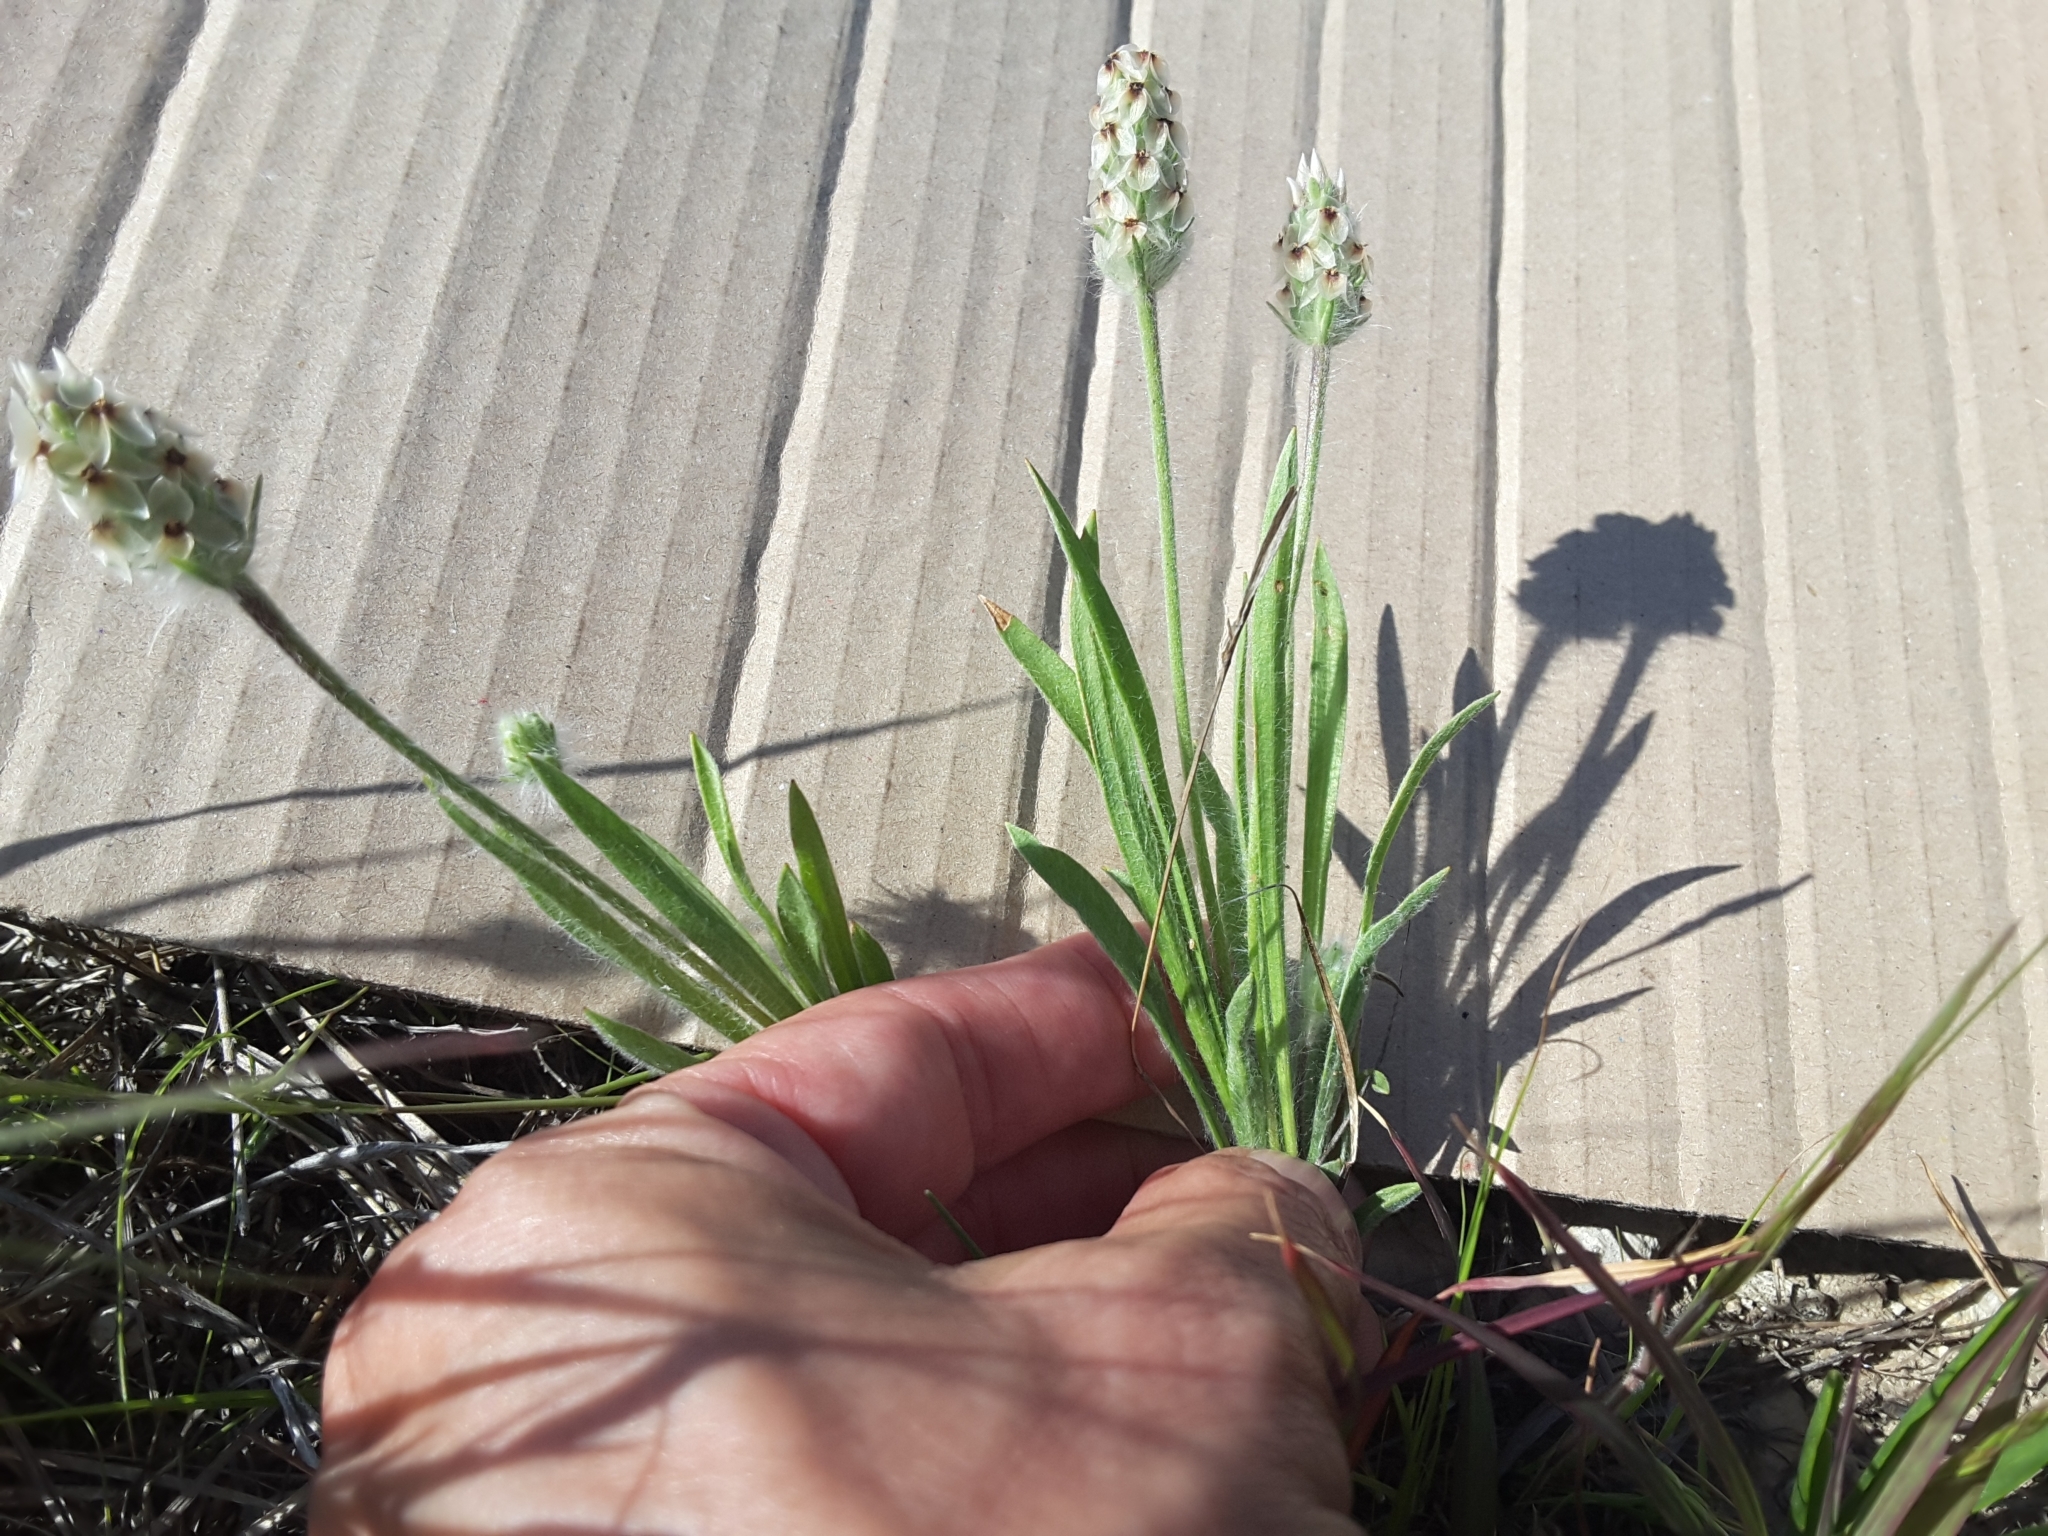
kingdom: Plantae
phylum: Tracheophyta
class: Magnoliopsida
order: Lamiales
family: Plantaginaceae
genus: Plantago
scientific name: Plantago helleri
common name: Heller's plantain
